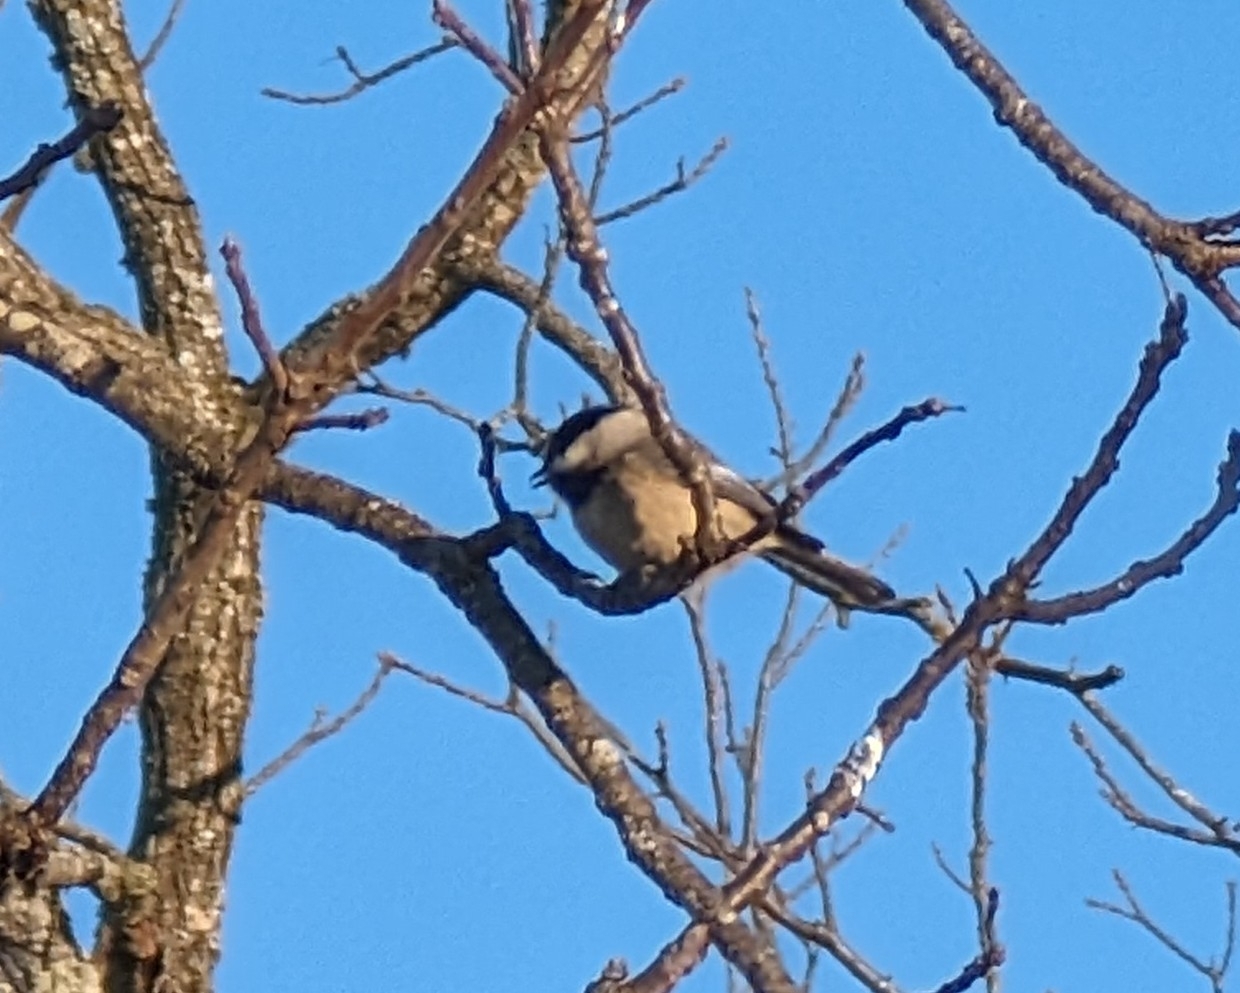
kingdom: Animalia
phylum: Chordata
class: Aves
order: Passeriformes
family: Paridae
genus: Poecile
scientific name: Poecile carolinensis
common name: Carolina chickadee
